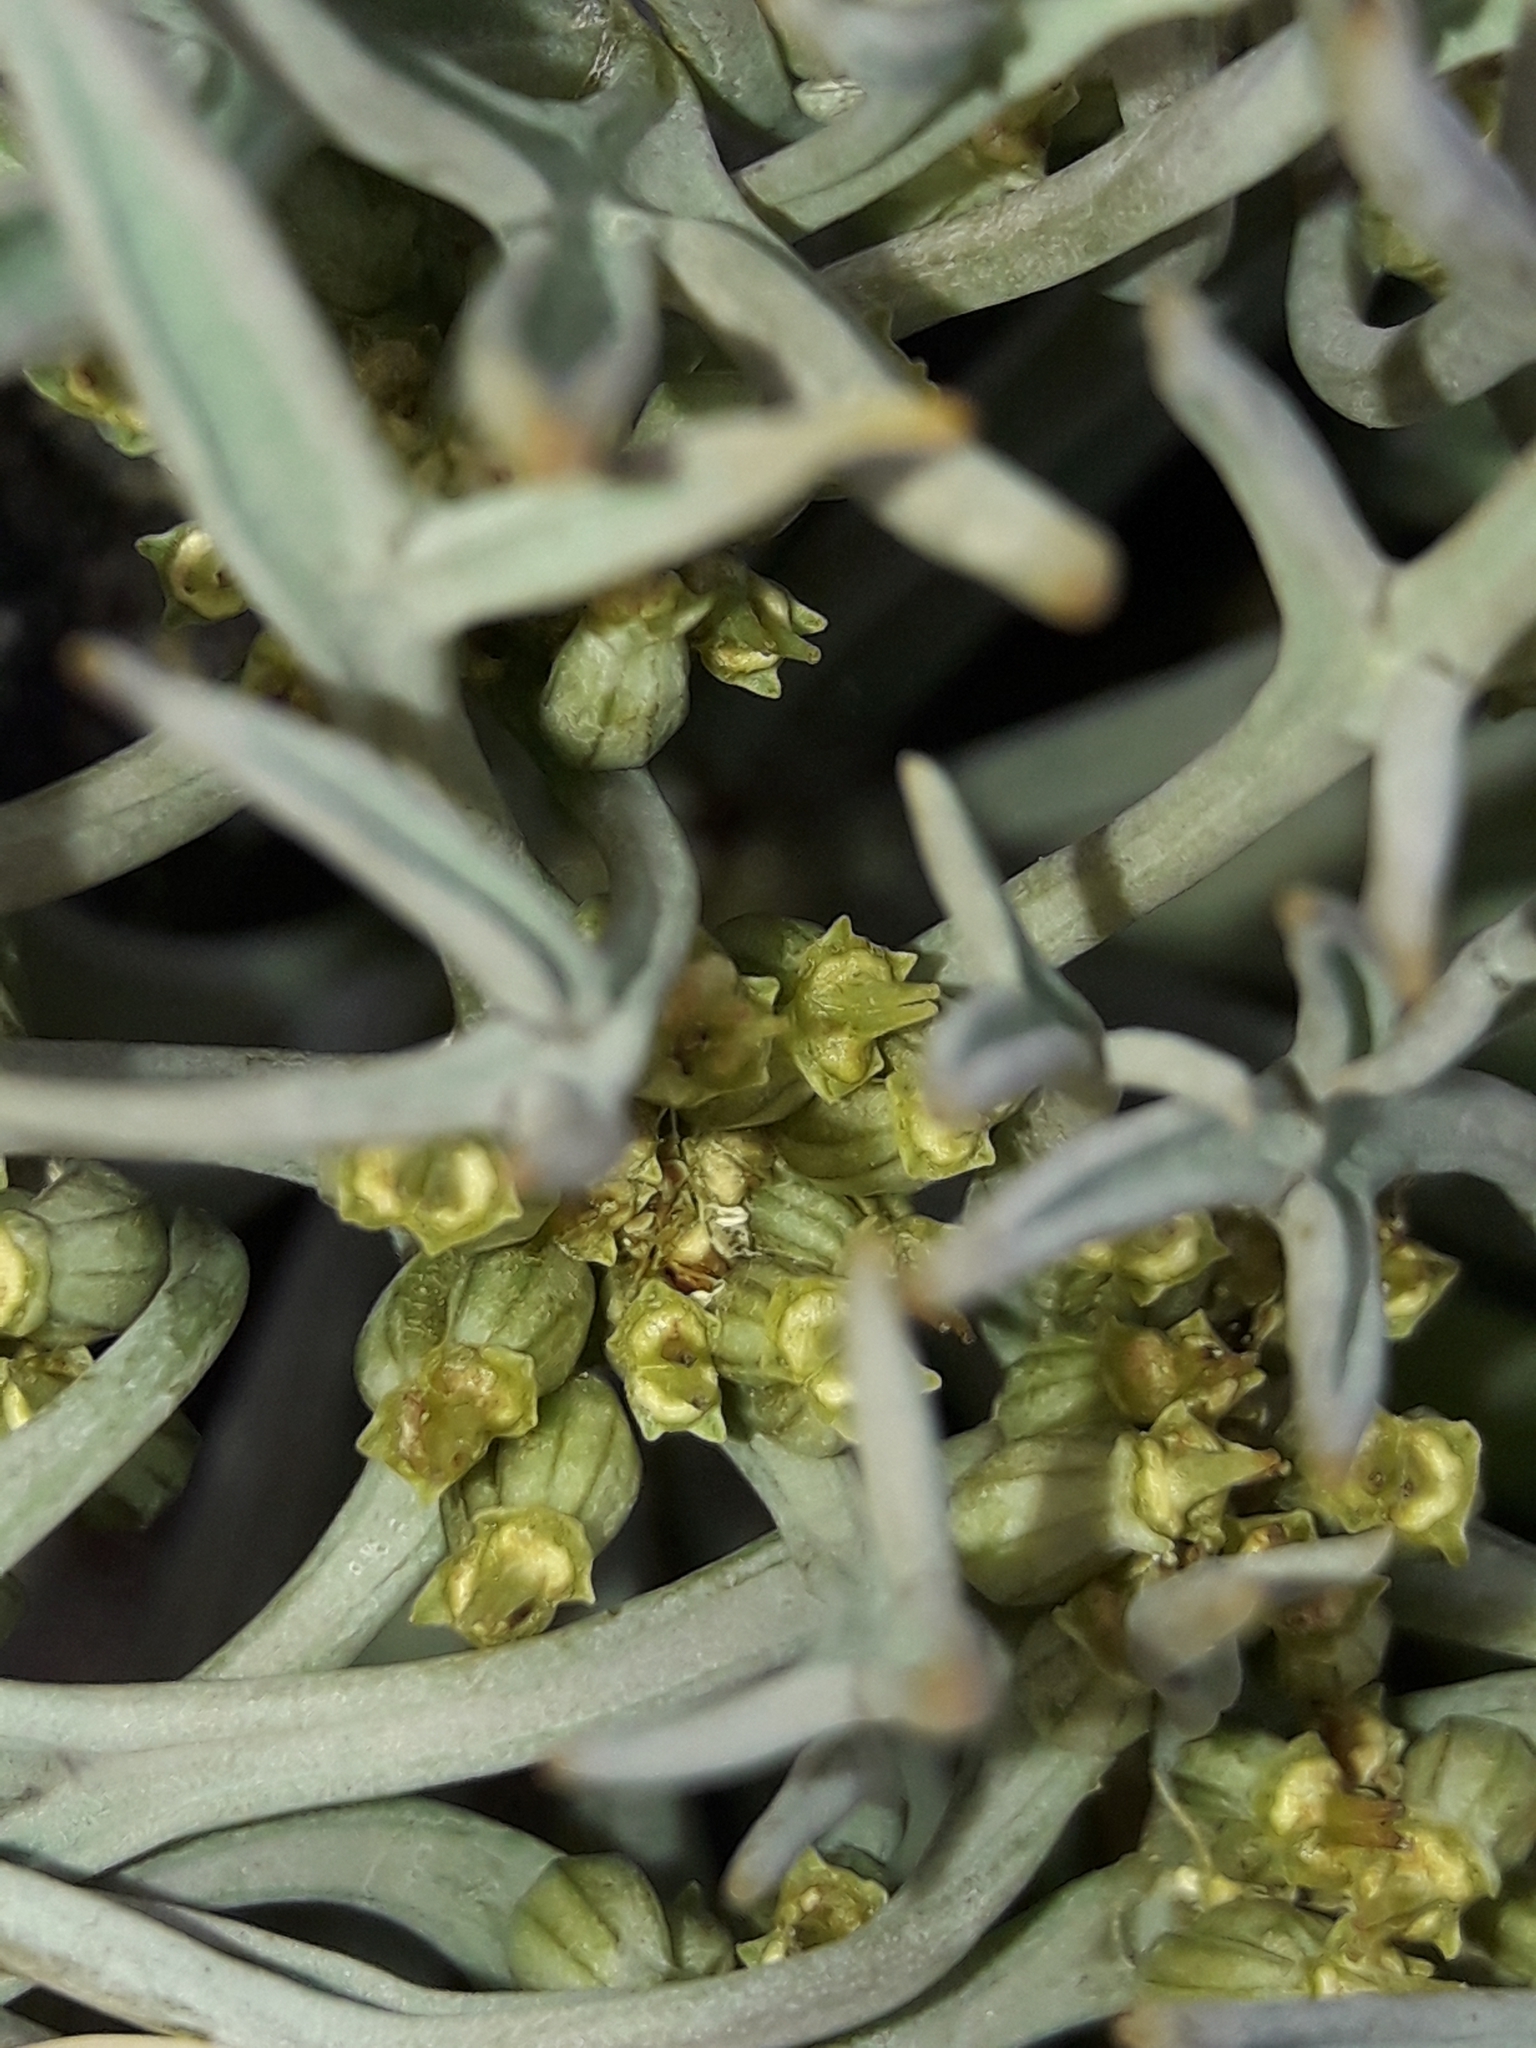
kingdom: Plantae
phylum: Tracheophyta
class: Magnoliopsida
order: Apiales
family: Apiaceae
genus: Lignocarpa
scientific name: Lignocarpa carnosula
